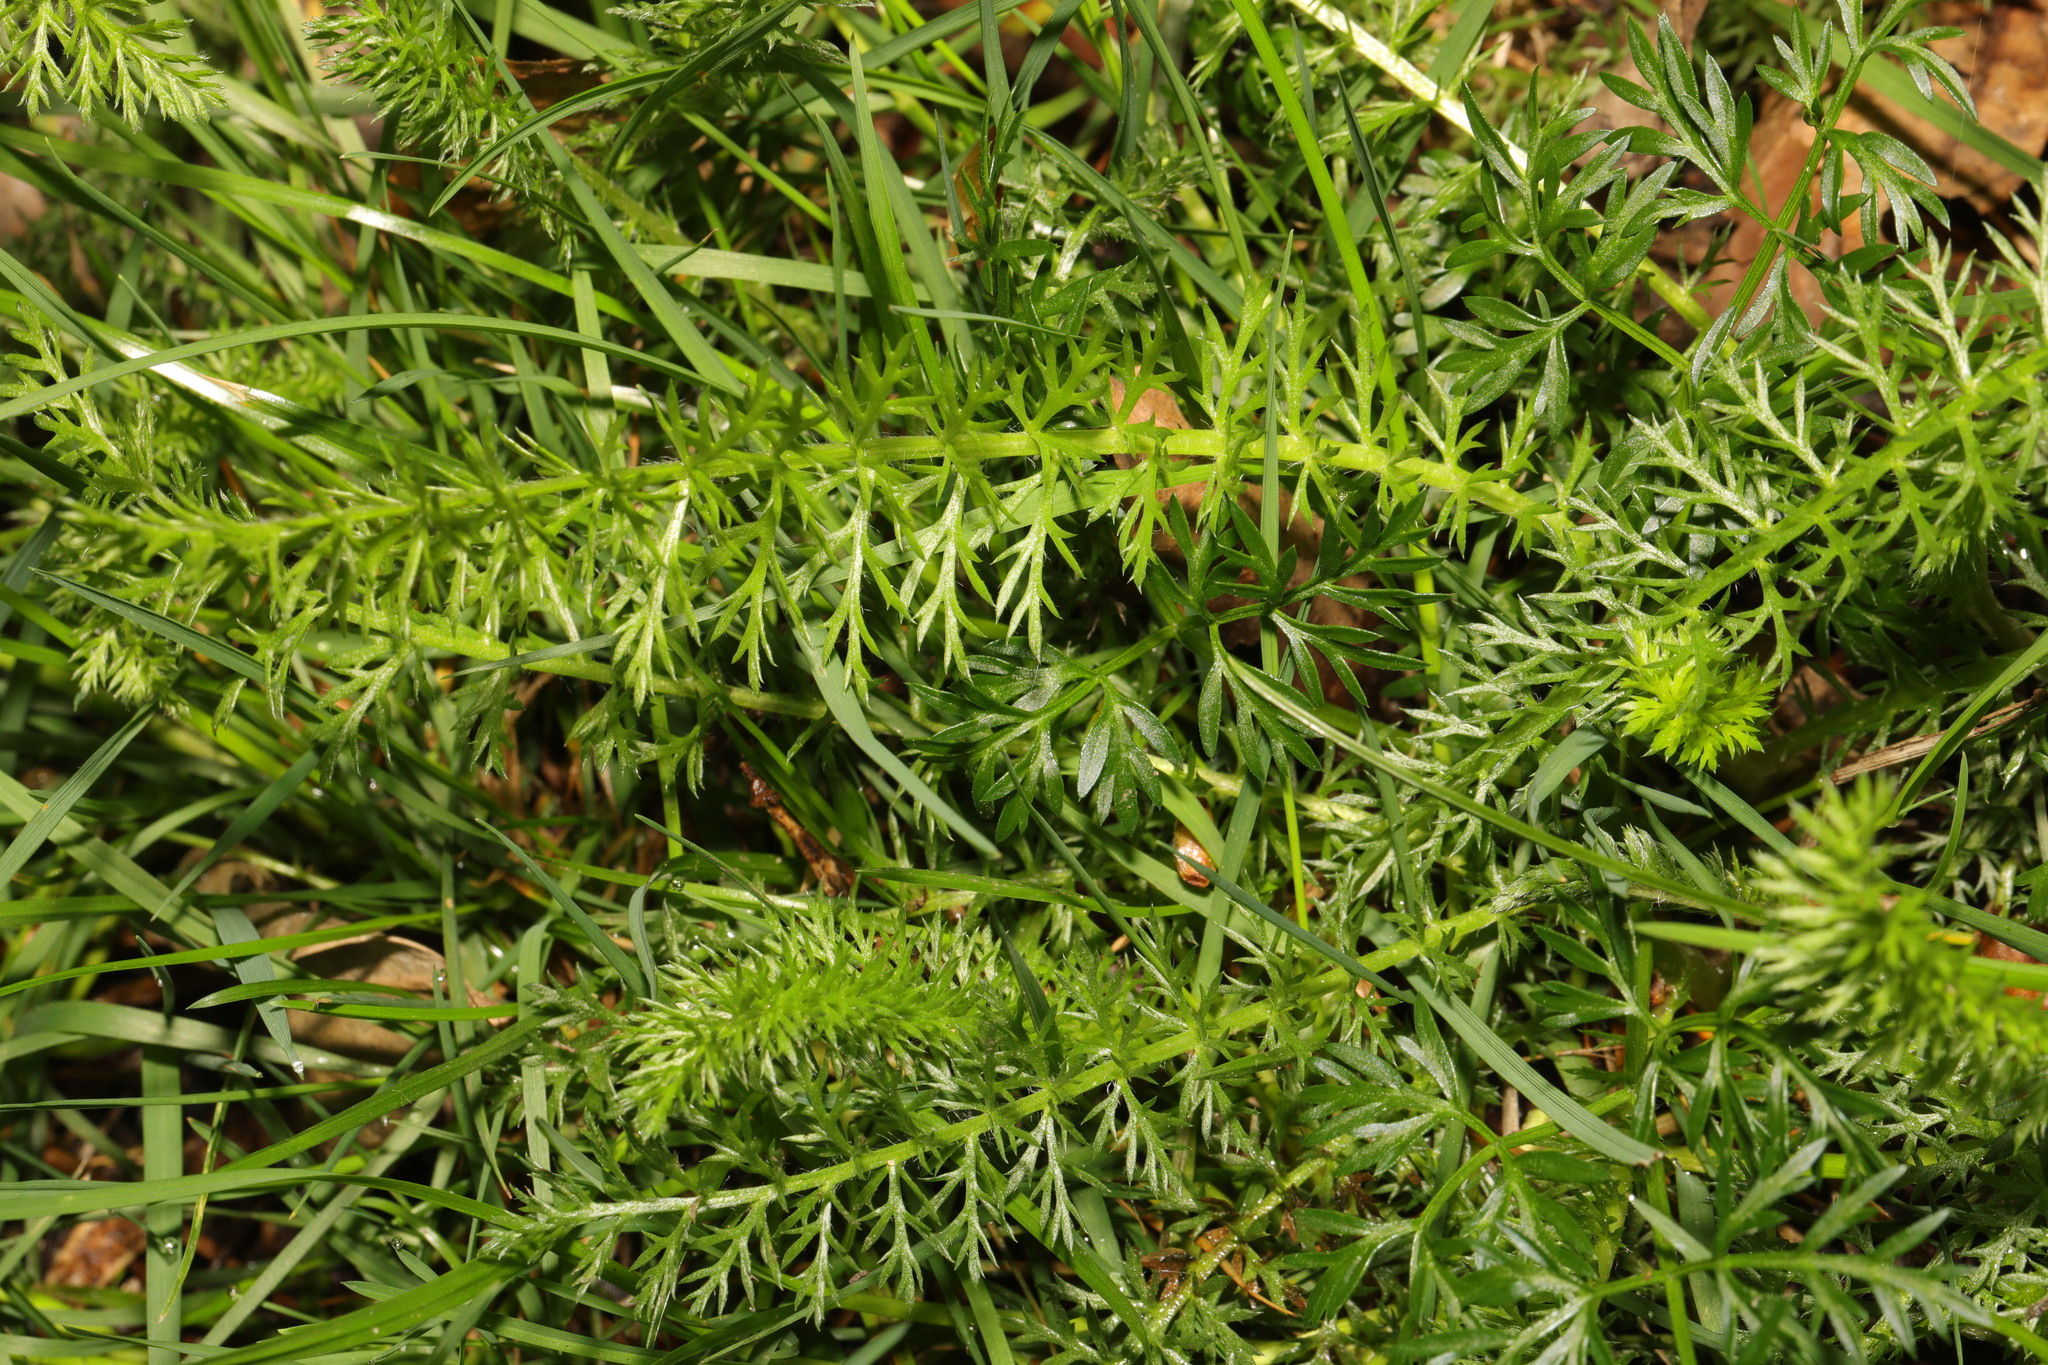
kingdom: Plantae
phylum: Tracheophyta
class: Magnoliopsida
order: Asterales
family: Asteraceae
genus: Achillea
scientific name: Achillea millefolium
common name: Yarrow
